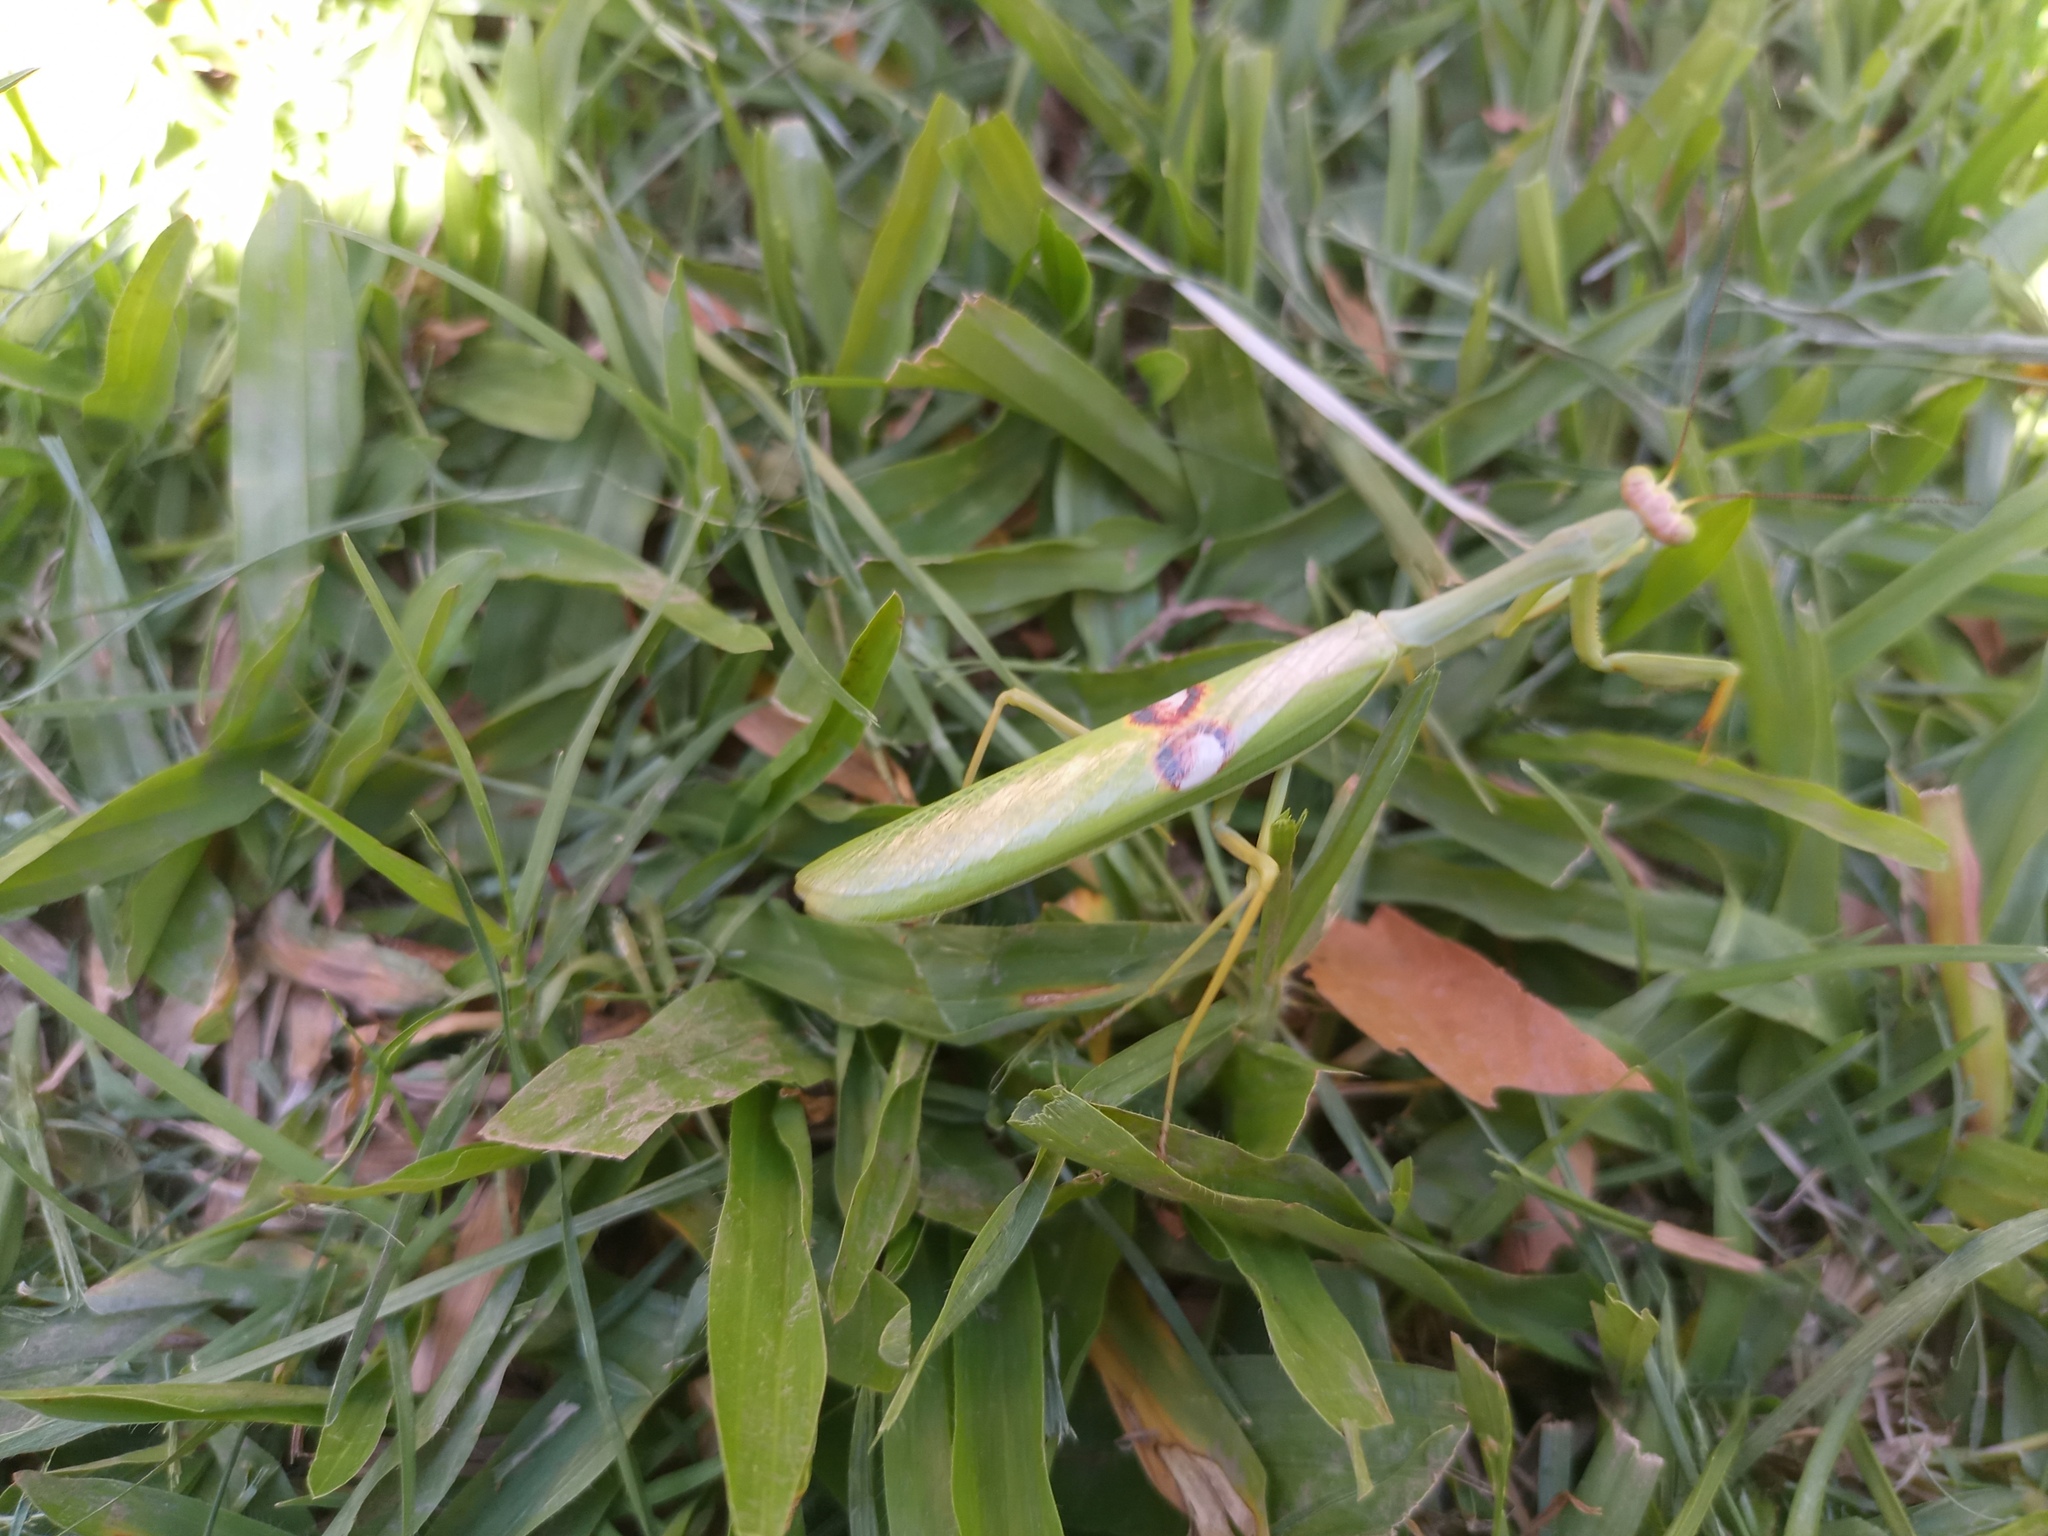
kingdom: Animalia
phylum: Arthropoda
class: Insecta
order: Mantodea
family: Mantidae
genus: Stagmatoptera
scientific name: Stagmatoptera hyaloptera
